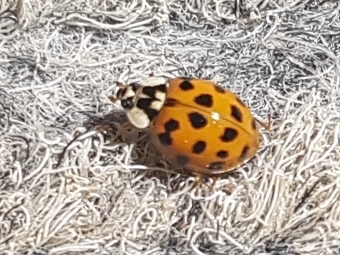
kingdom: Animalia
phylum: Arthropoda
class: Insecta
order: Coleoptera
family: Coccinellidae
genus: Harmonia
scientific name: Harmonia axyridis
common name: Harlequin ladybird
